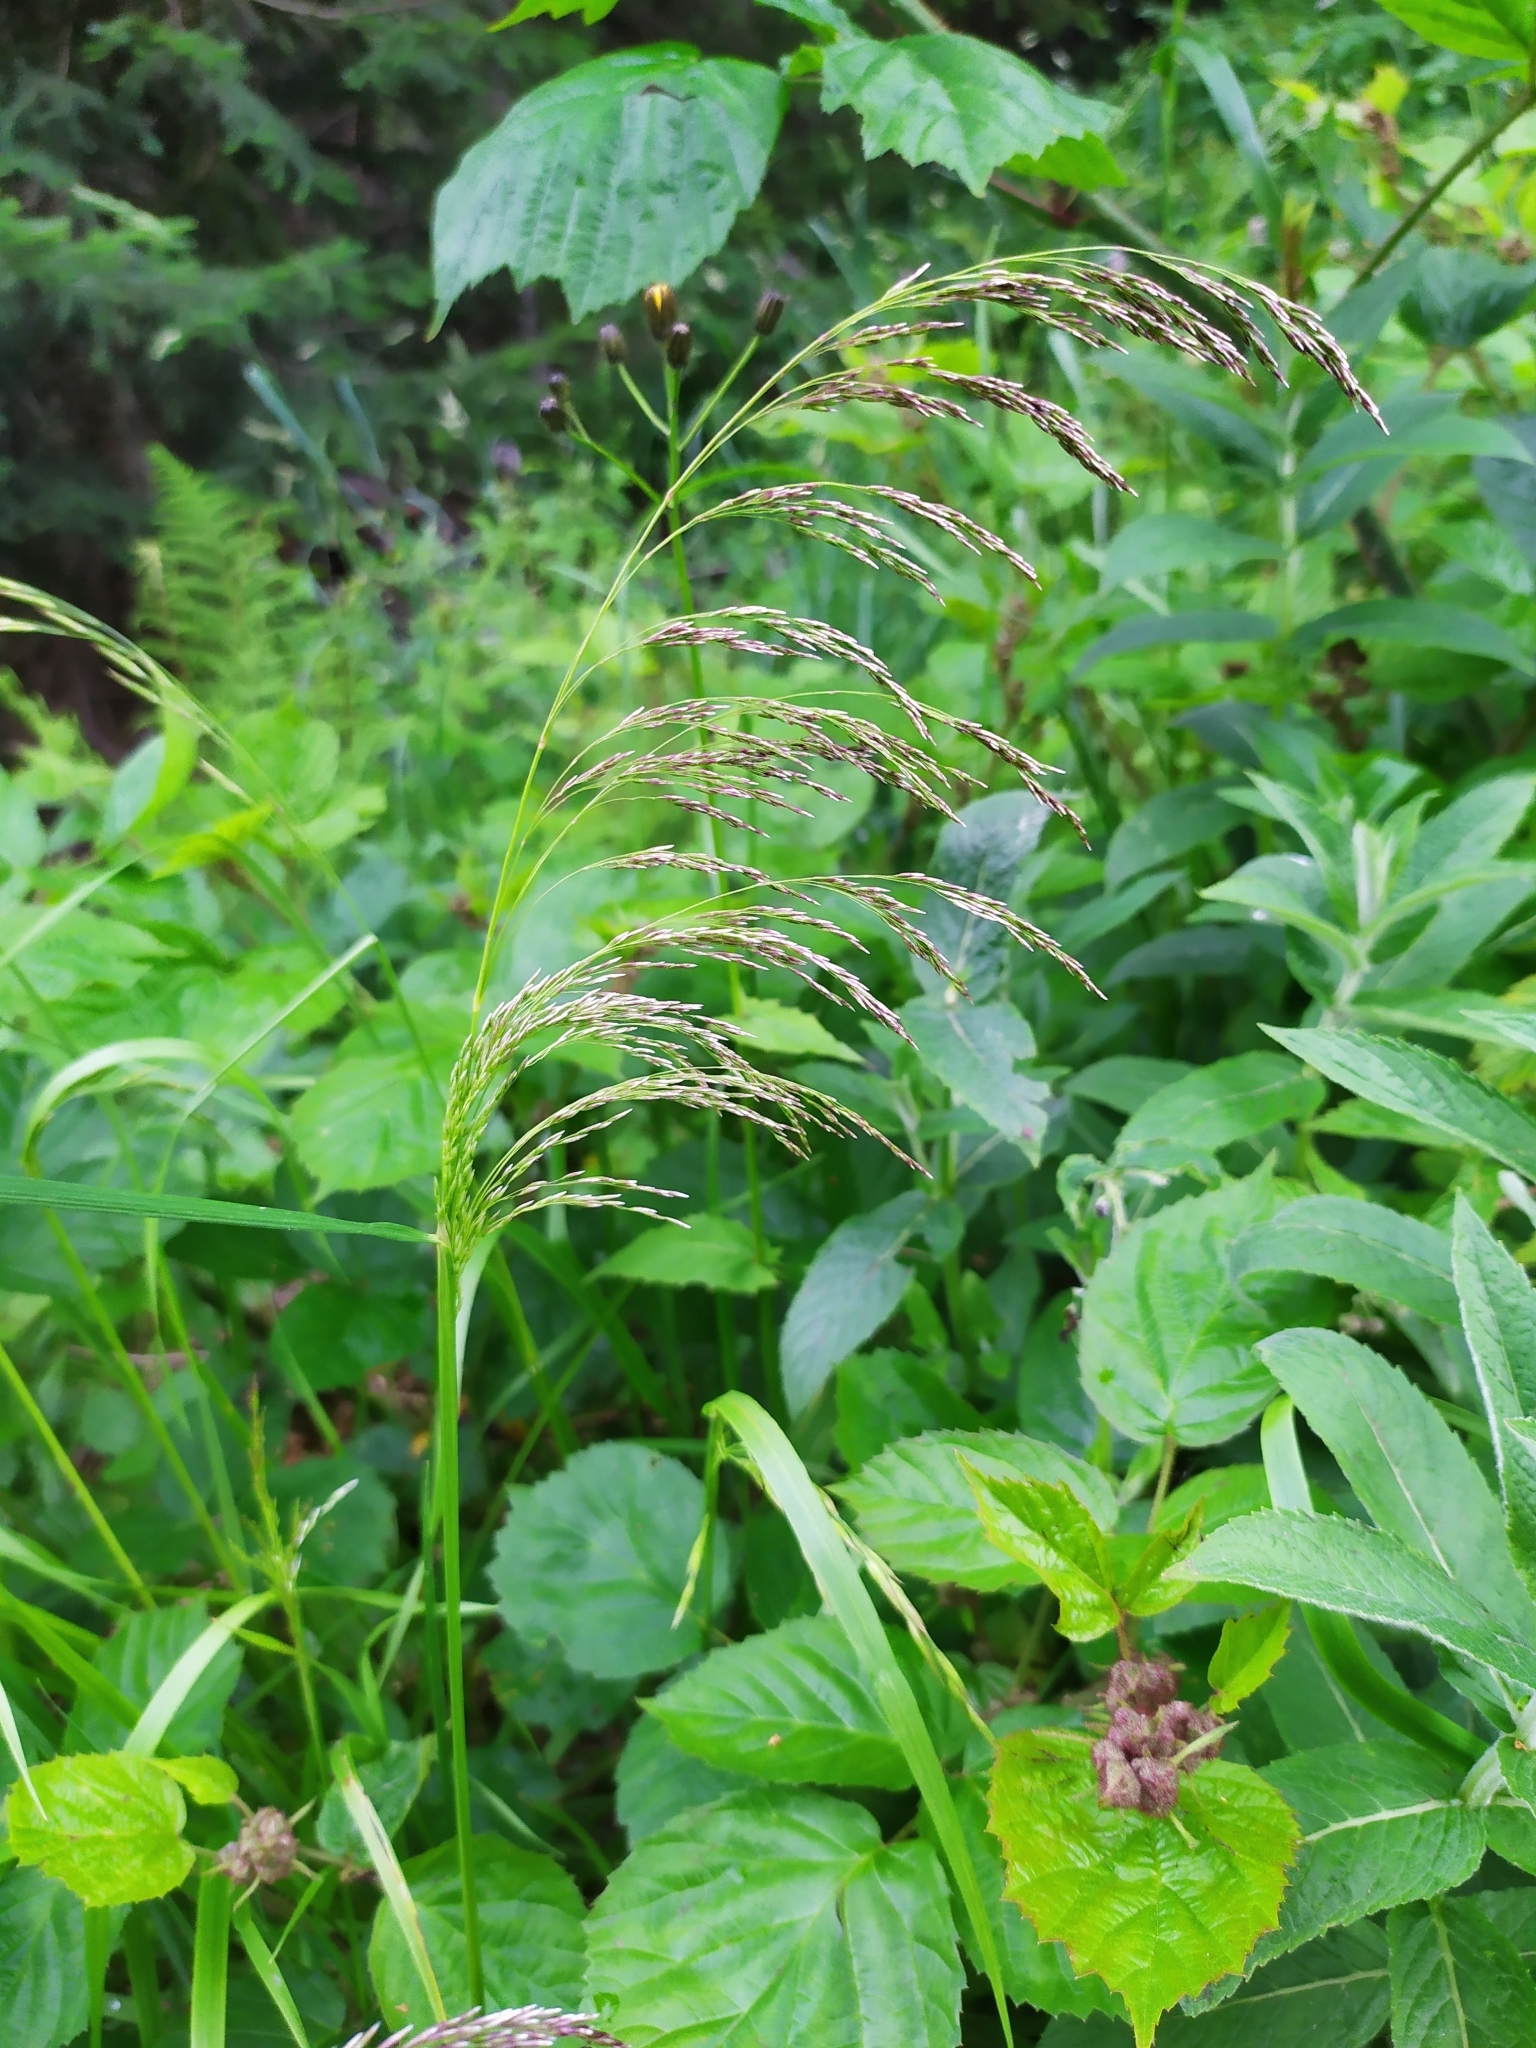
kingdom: Plantae
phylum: Tracheophyta
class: Liliopsida
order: Poales
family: Poaceae
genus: Deschampsia
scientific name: Deschampsia cespitosa
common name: Tufted hair-grass
